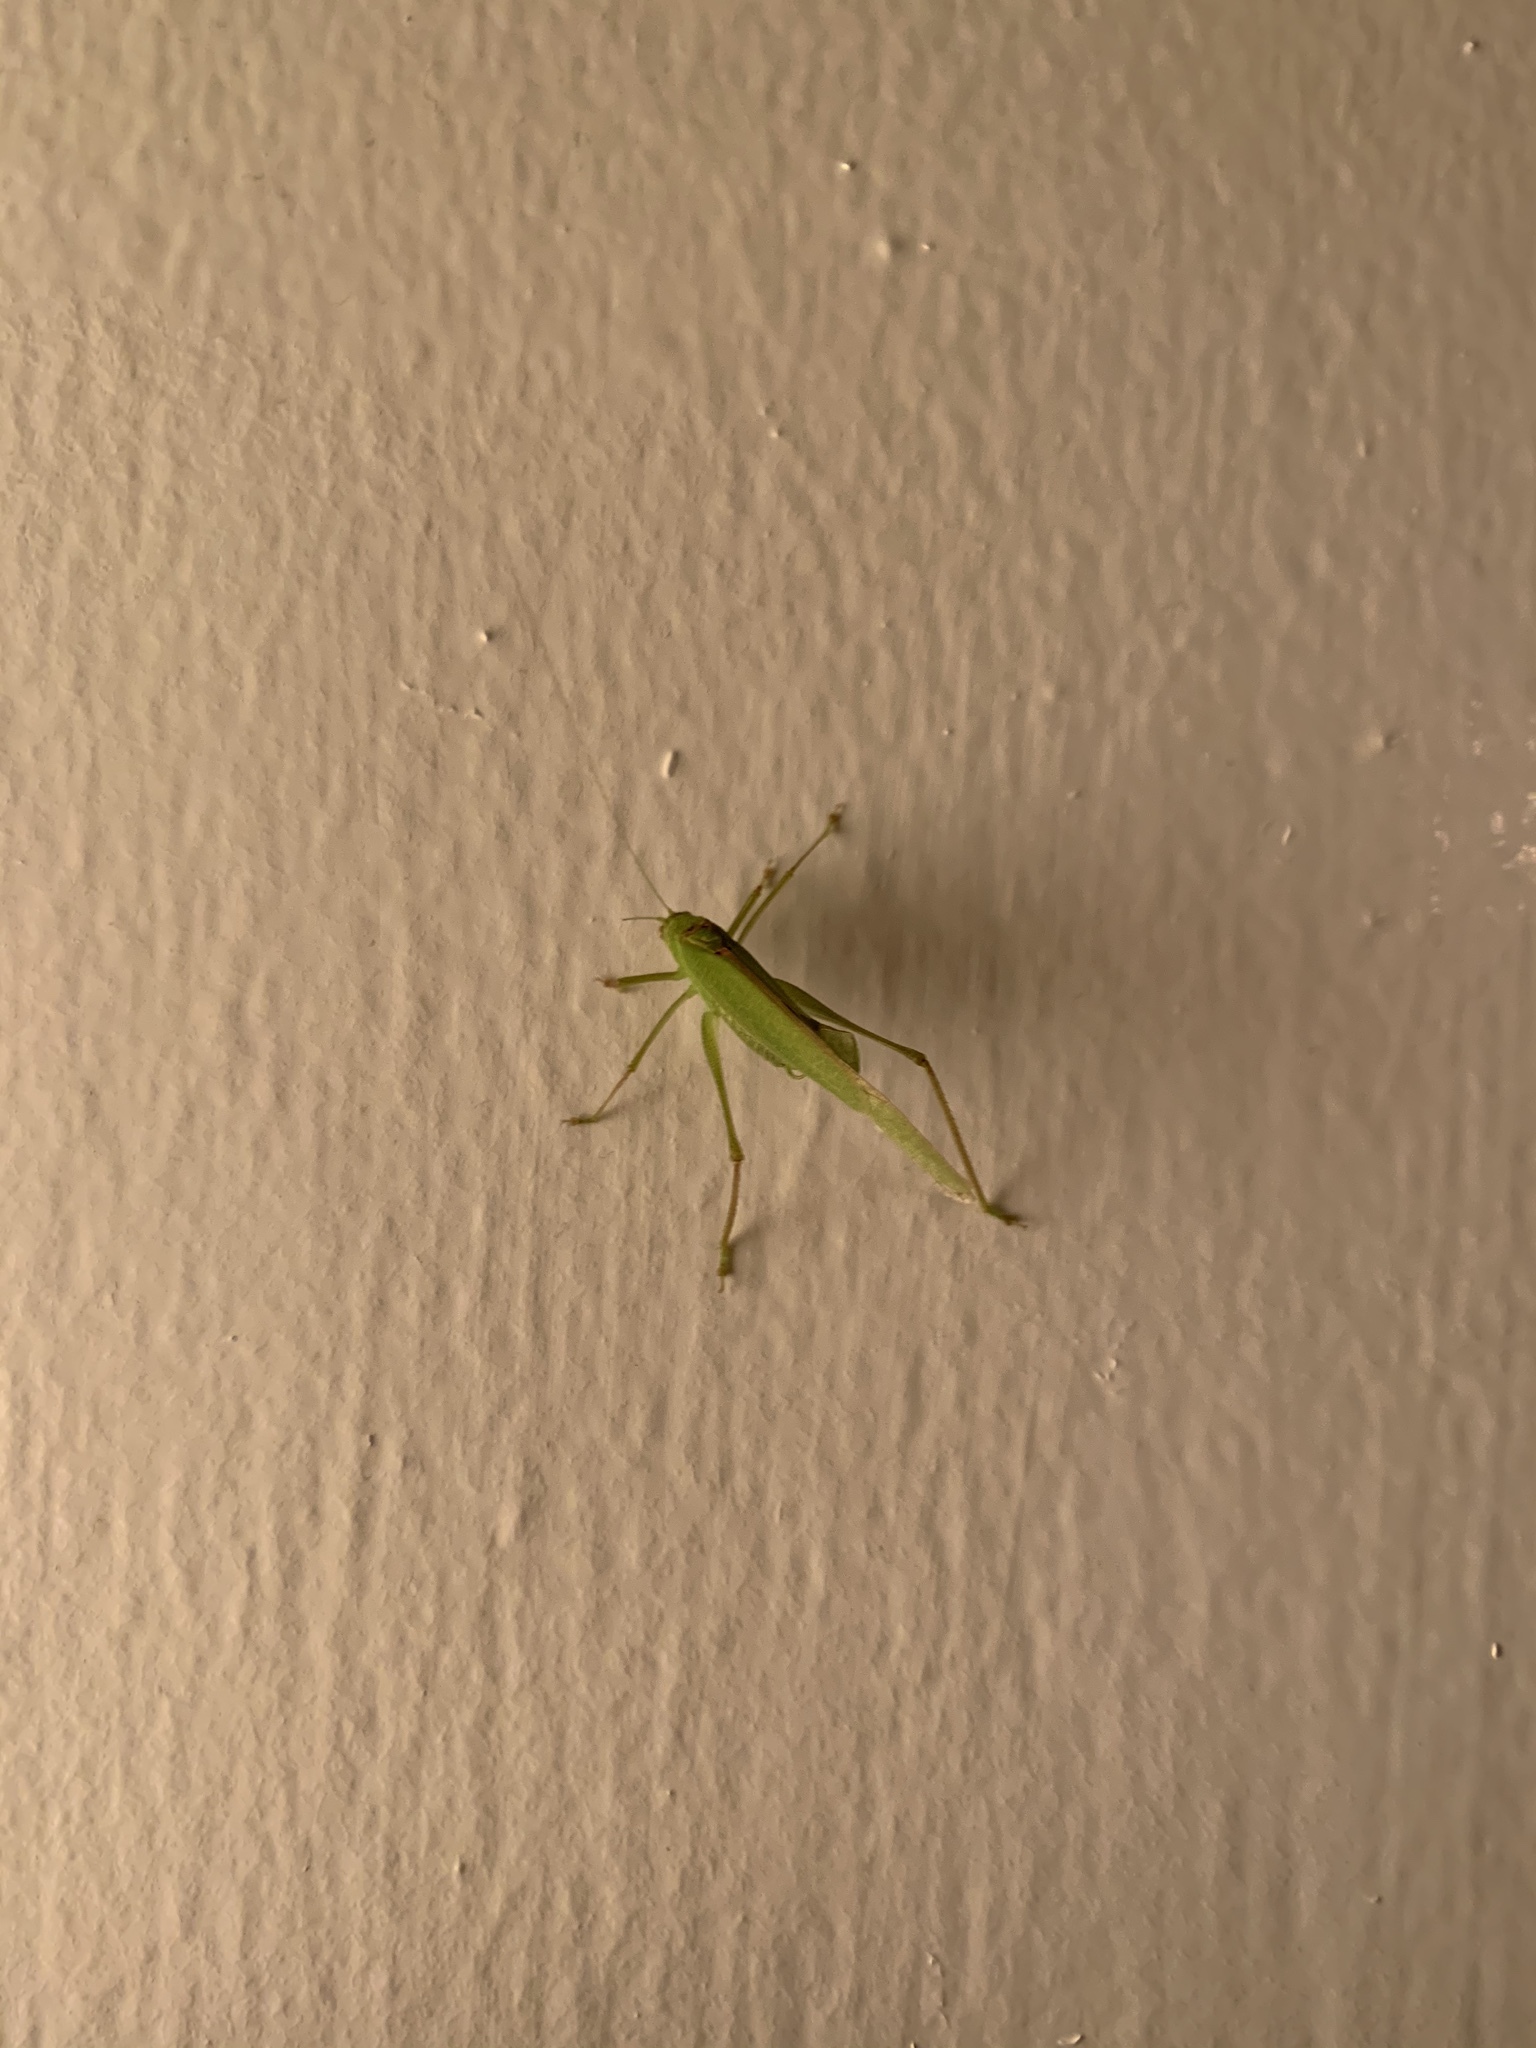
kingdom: Animalia
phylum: Arthropoda
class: Insecta
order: Orthoptera
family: Tettigoniidae
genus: Phaneroptera
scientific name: Phaneroptera nana
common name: Southern sickle bush-cricket
